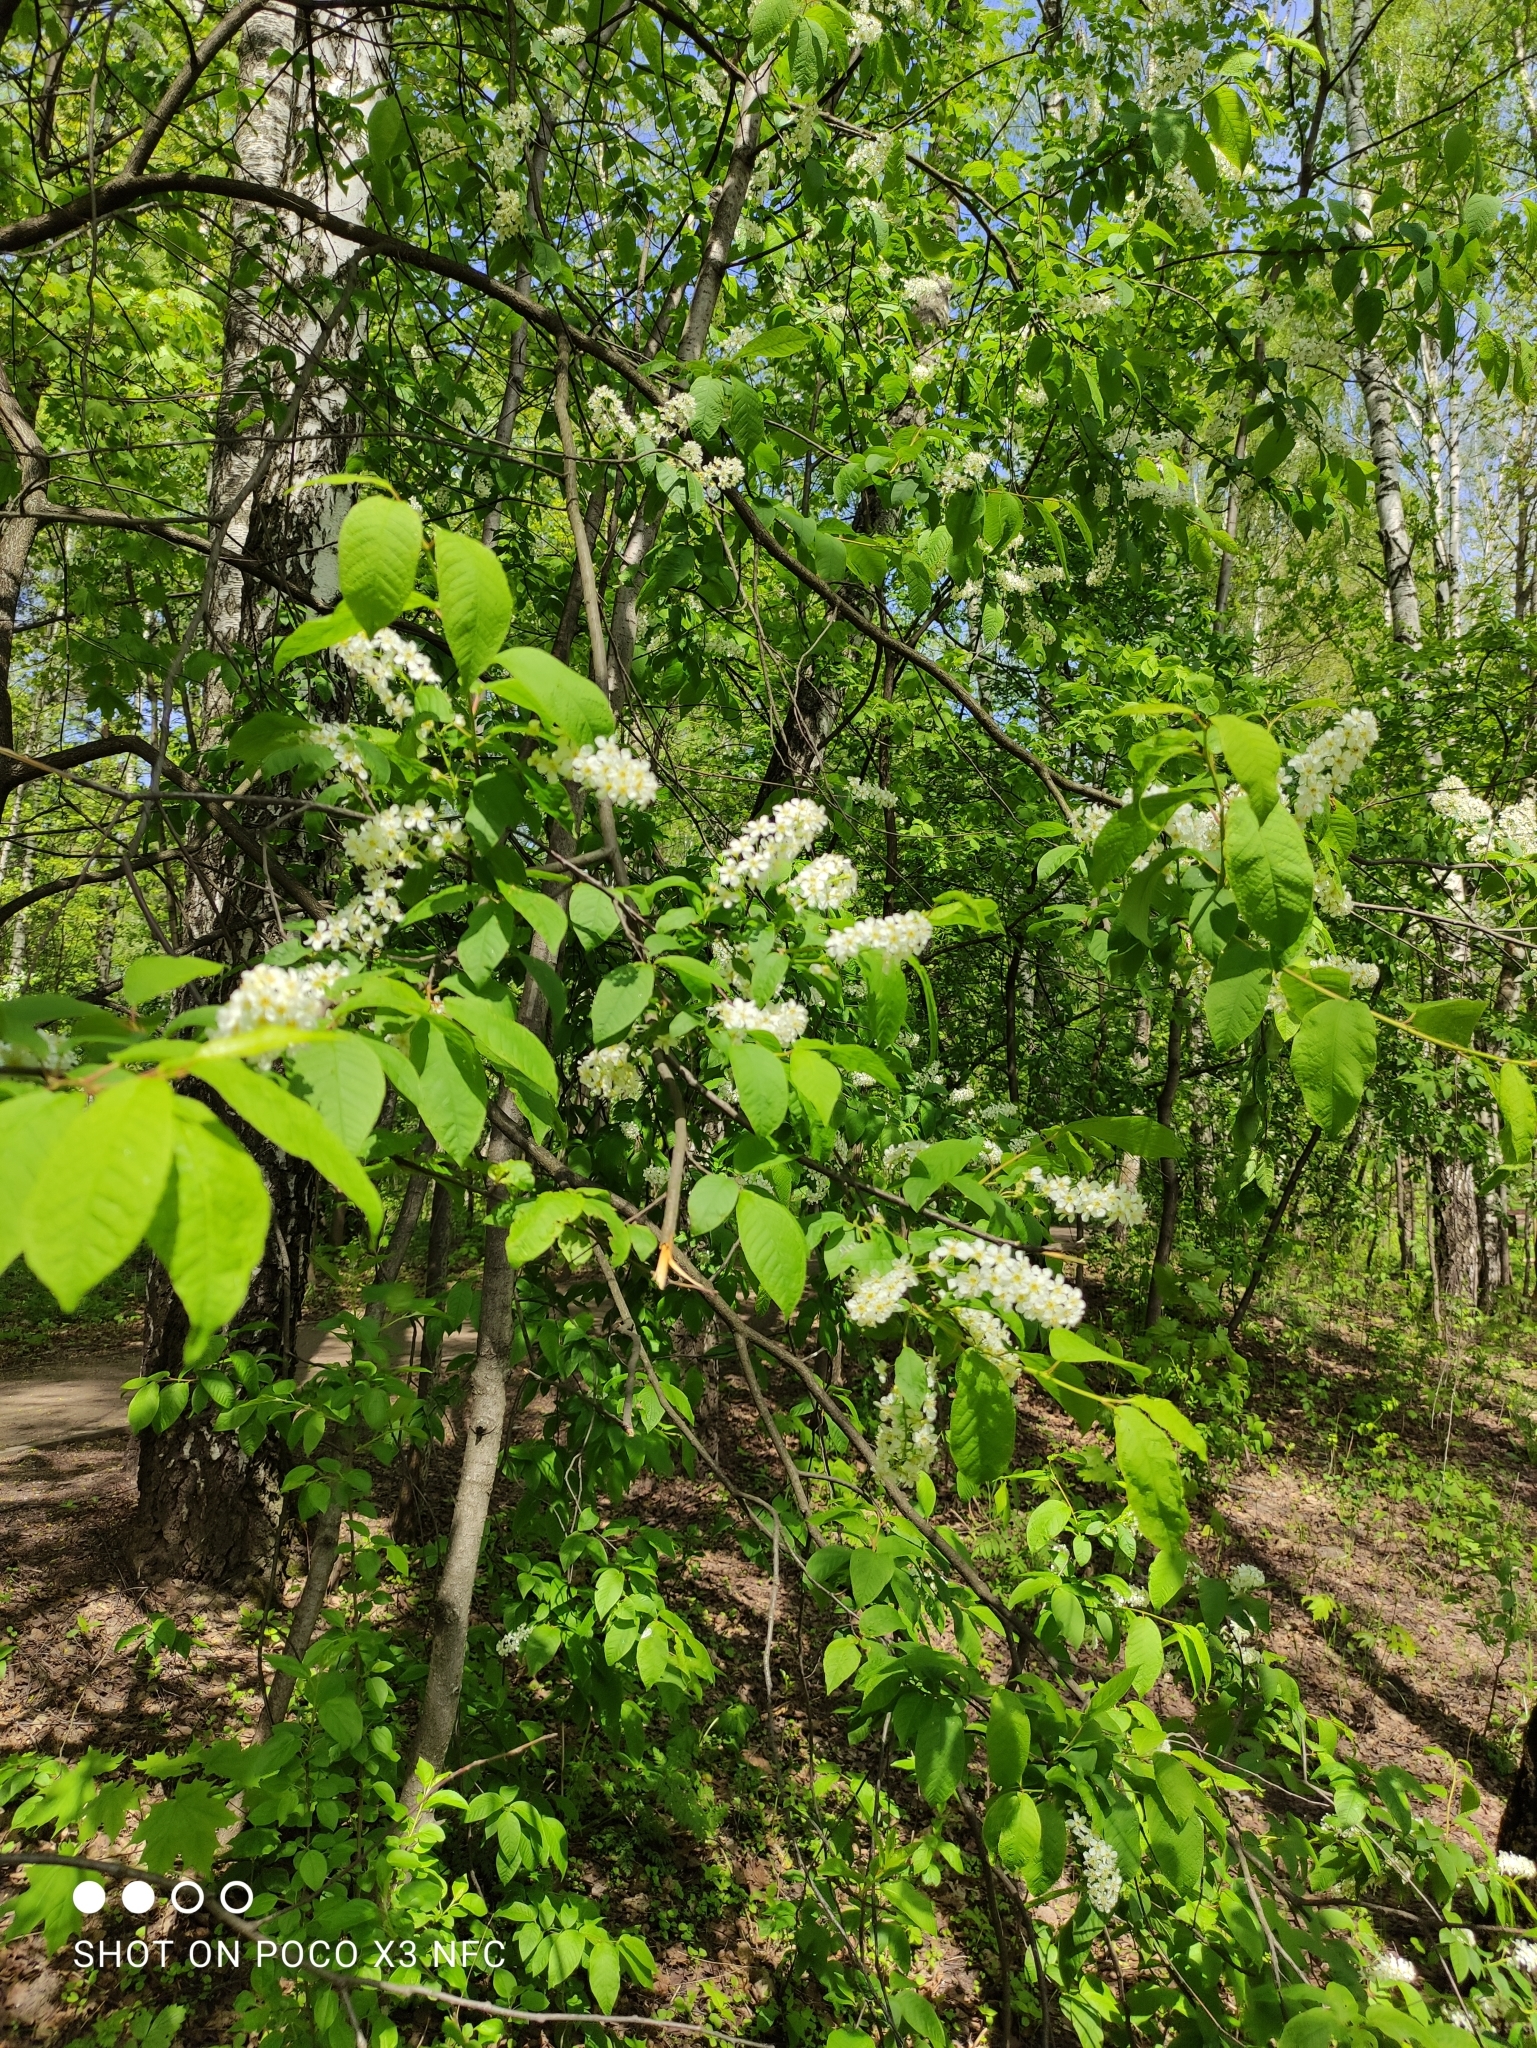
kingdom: Plantae
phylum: Tracheophyta
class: Magnoliopsida
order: Rosales
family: Rosaceae
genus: Prunus
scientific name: Prunus padus
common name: Bird cherry
